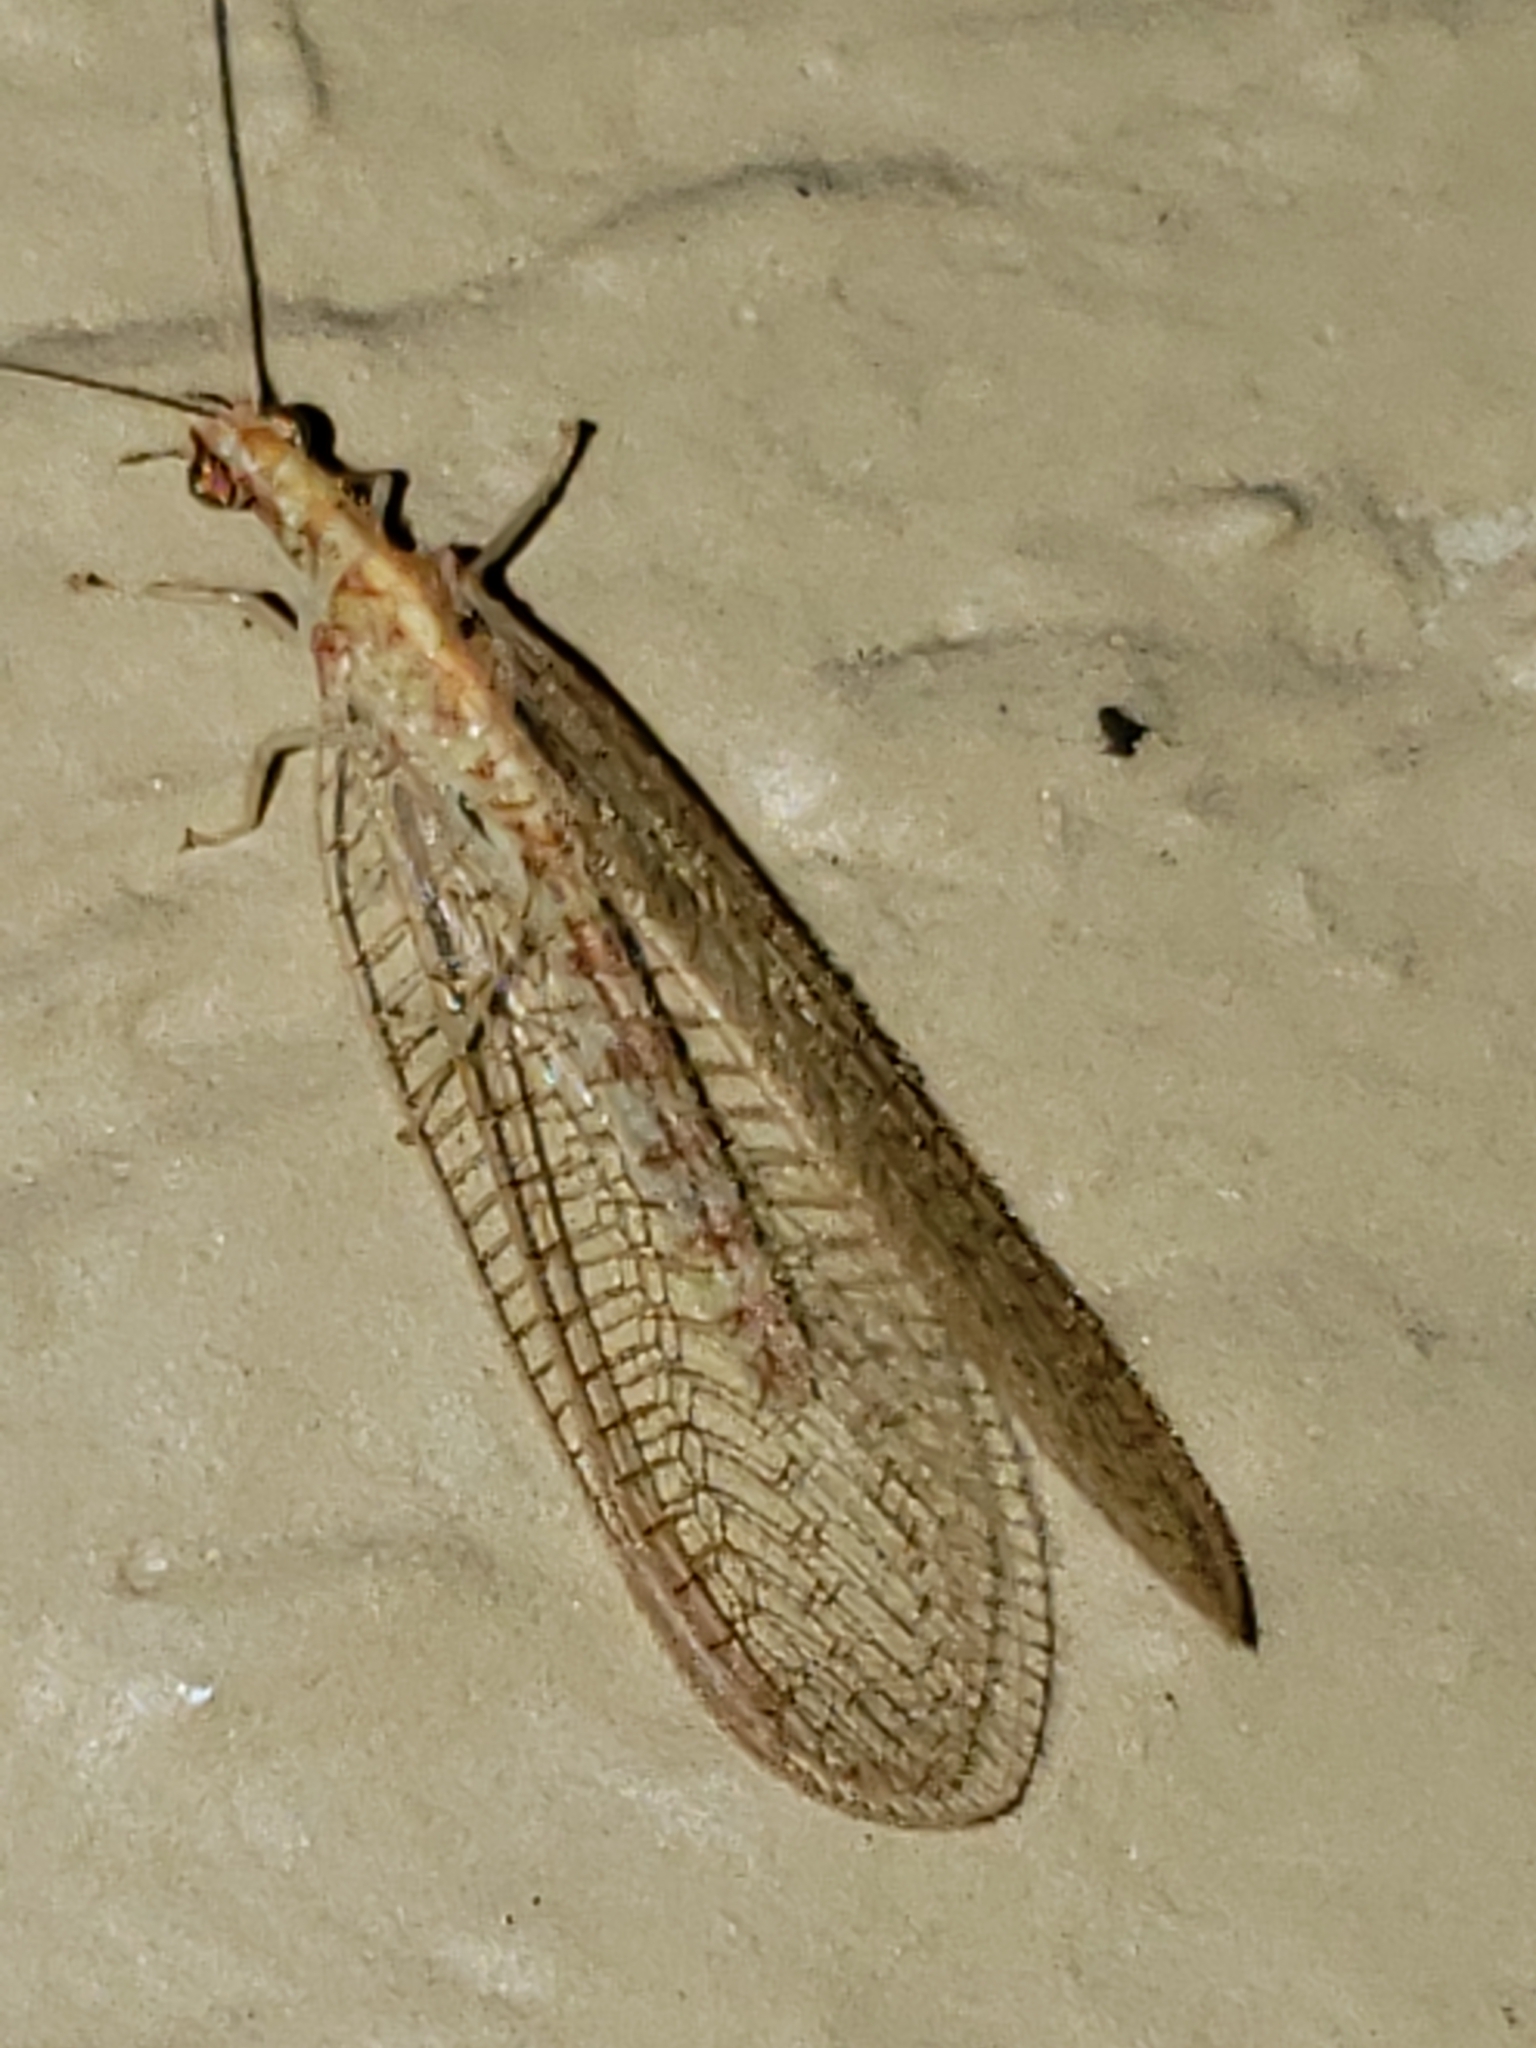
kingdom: Animalia
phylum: Arthropoda
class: Insecta
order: Neuroptera
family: Chrysopidae
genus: Chrysoperla
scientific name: Chrysoperla
